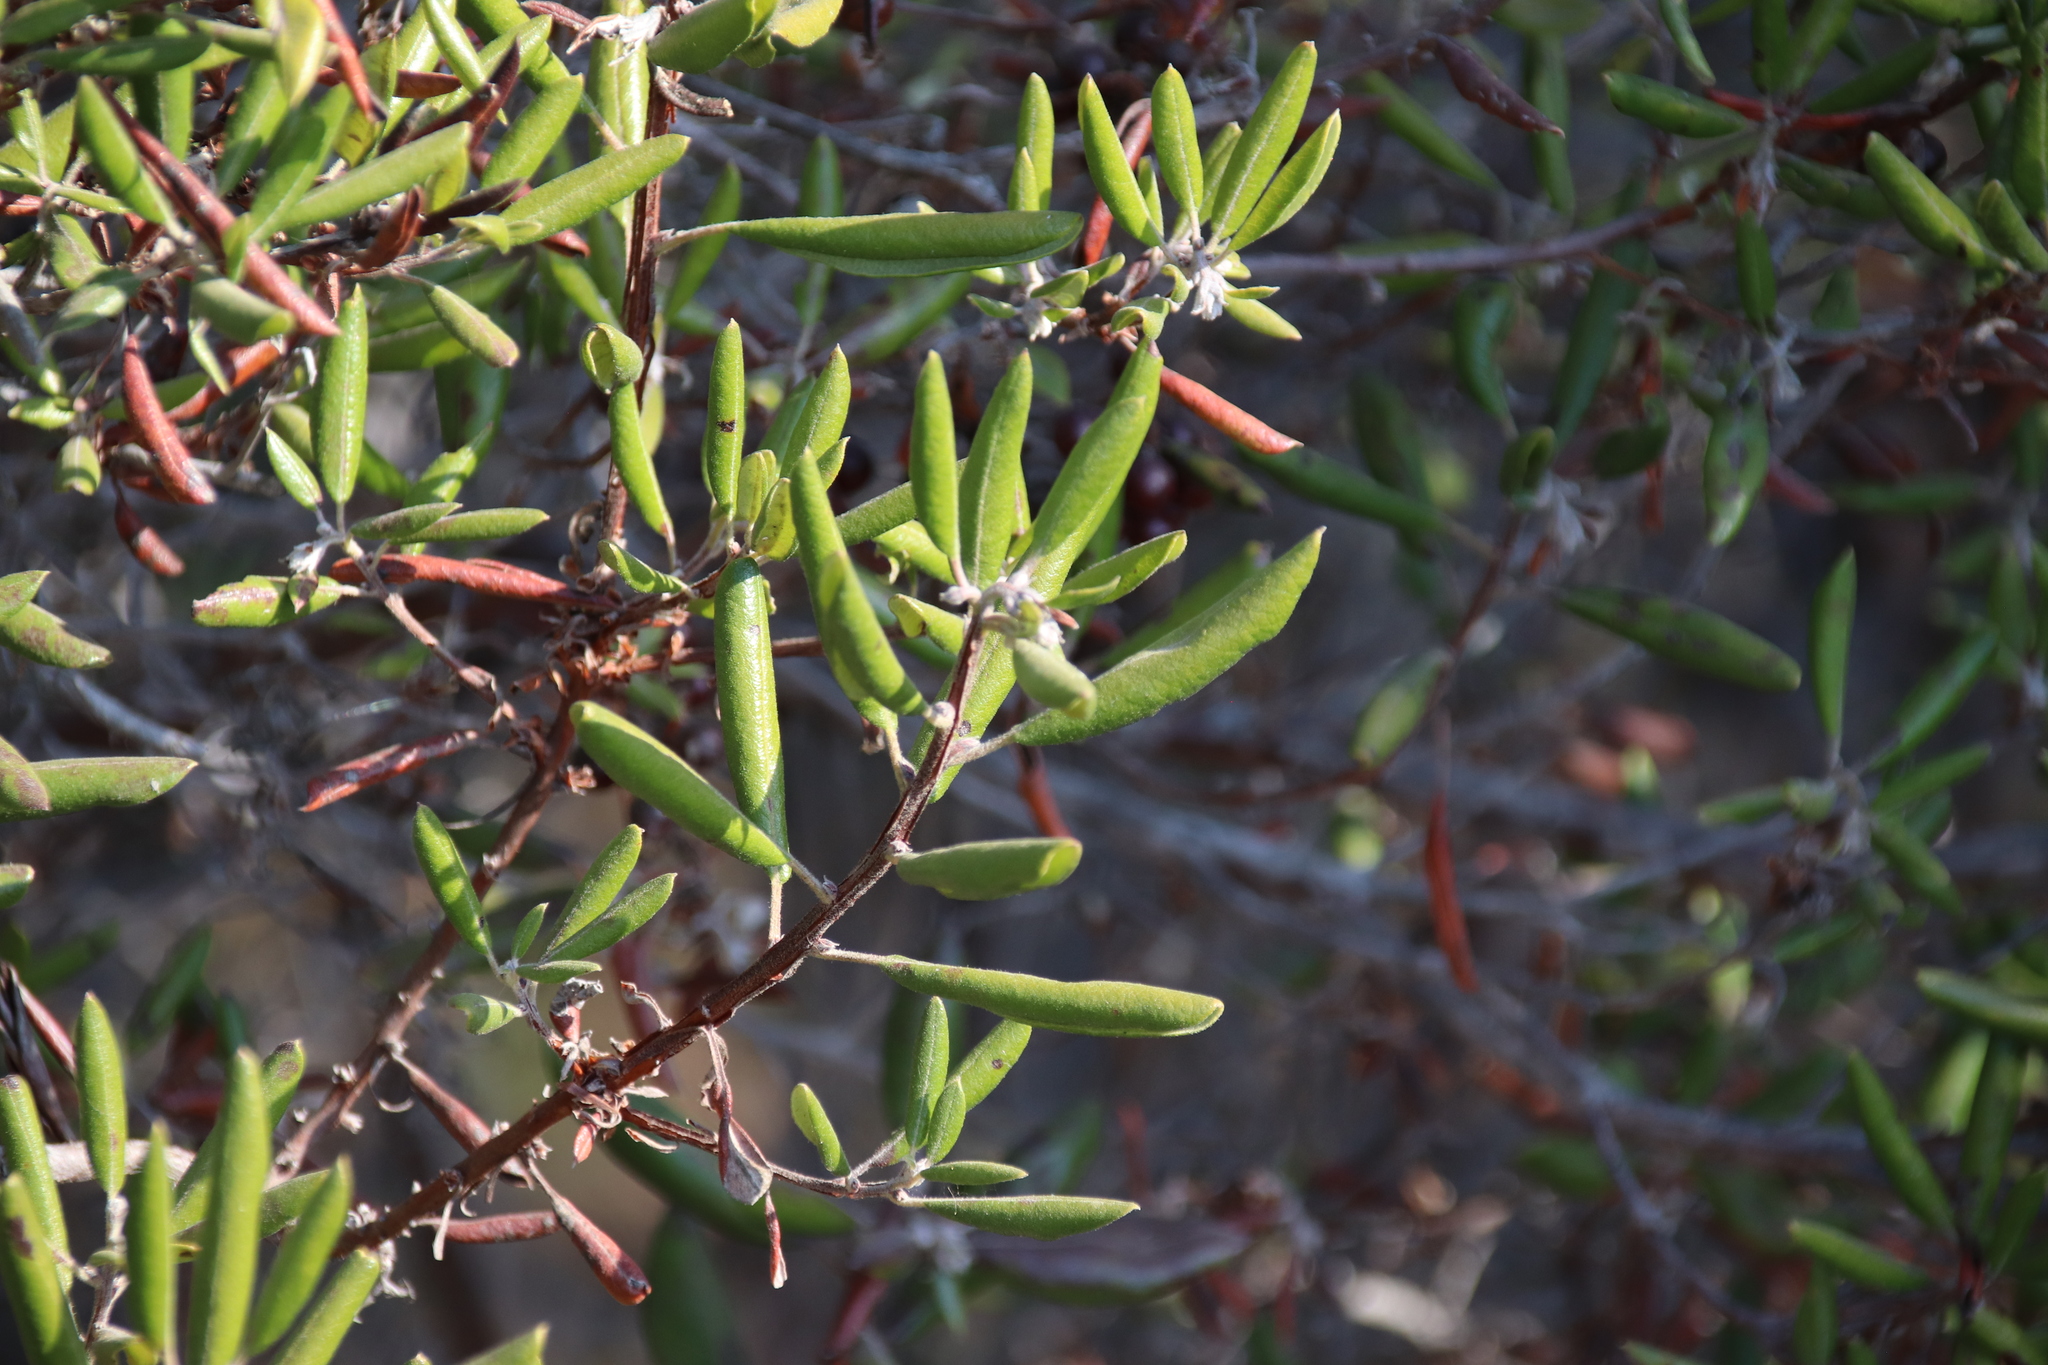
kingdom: Plantae
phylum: Tracheophyta
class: Magnoliopsida
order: Ericales
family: Ericaceae
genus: Arctostaphylos
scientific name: Arctostaphylos bicolor
